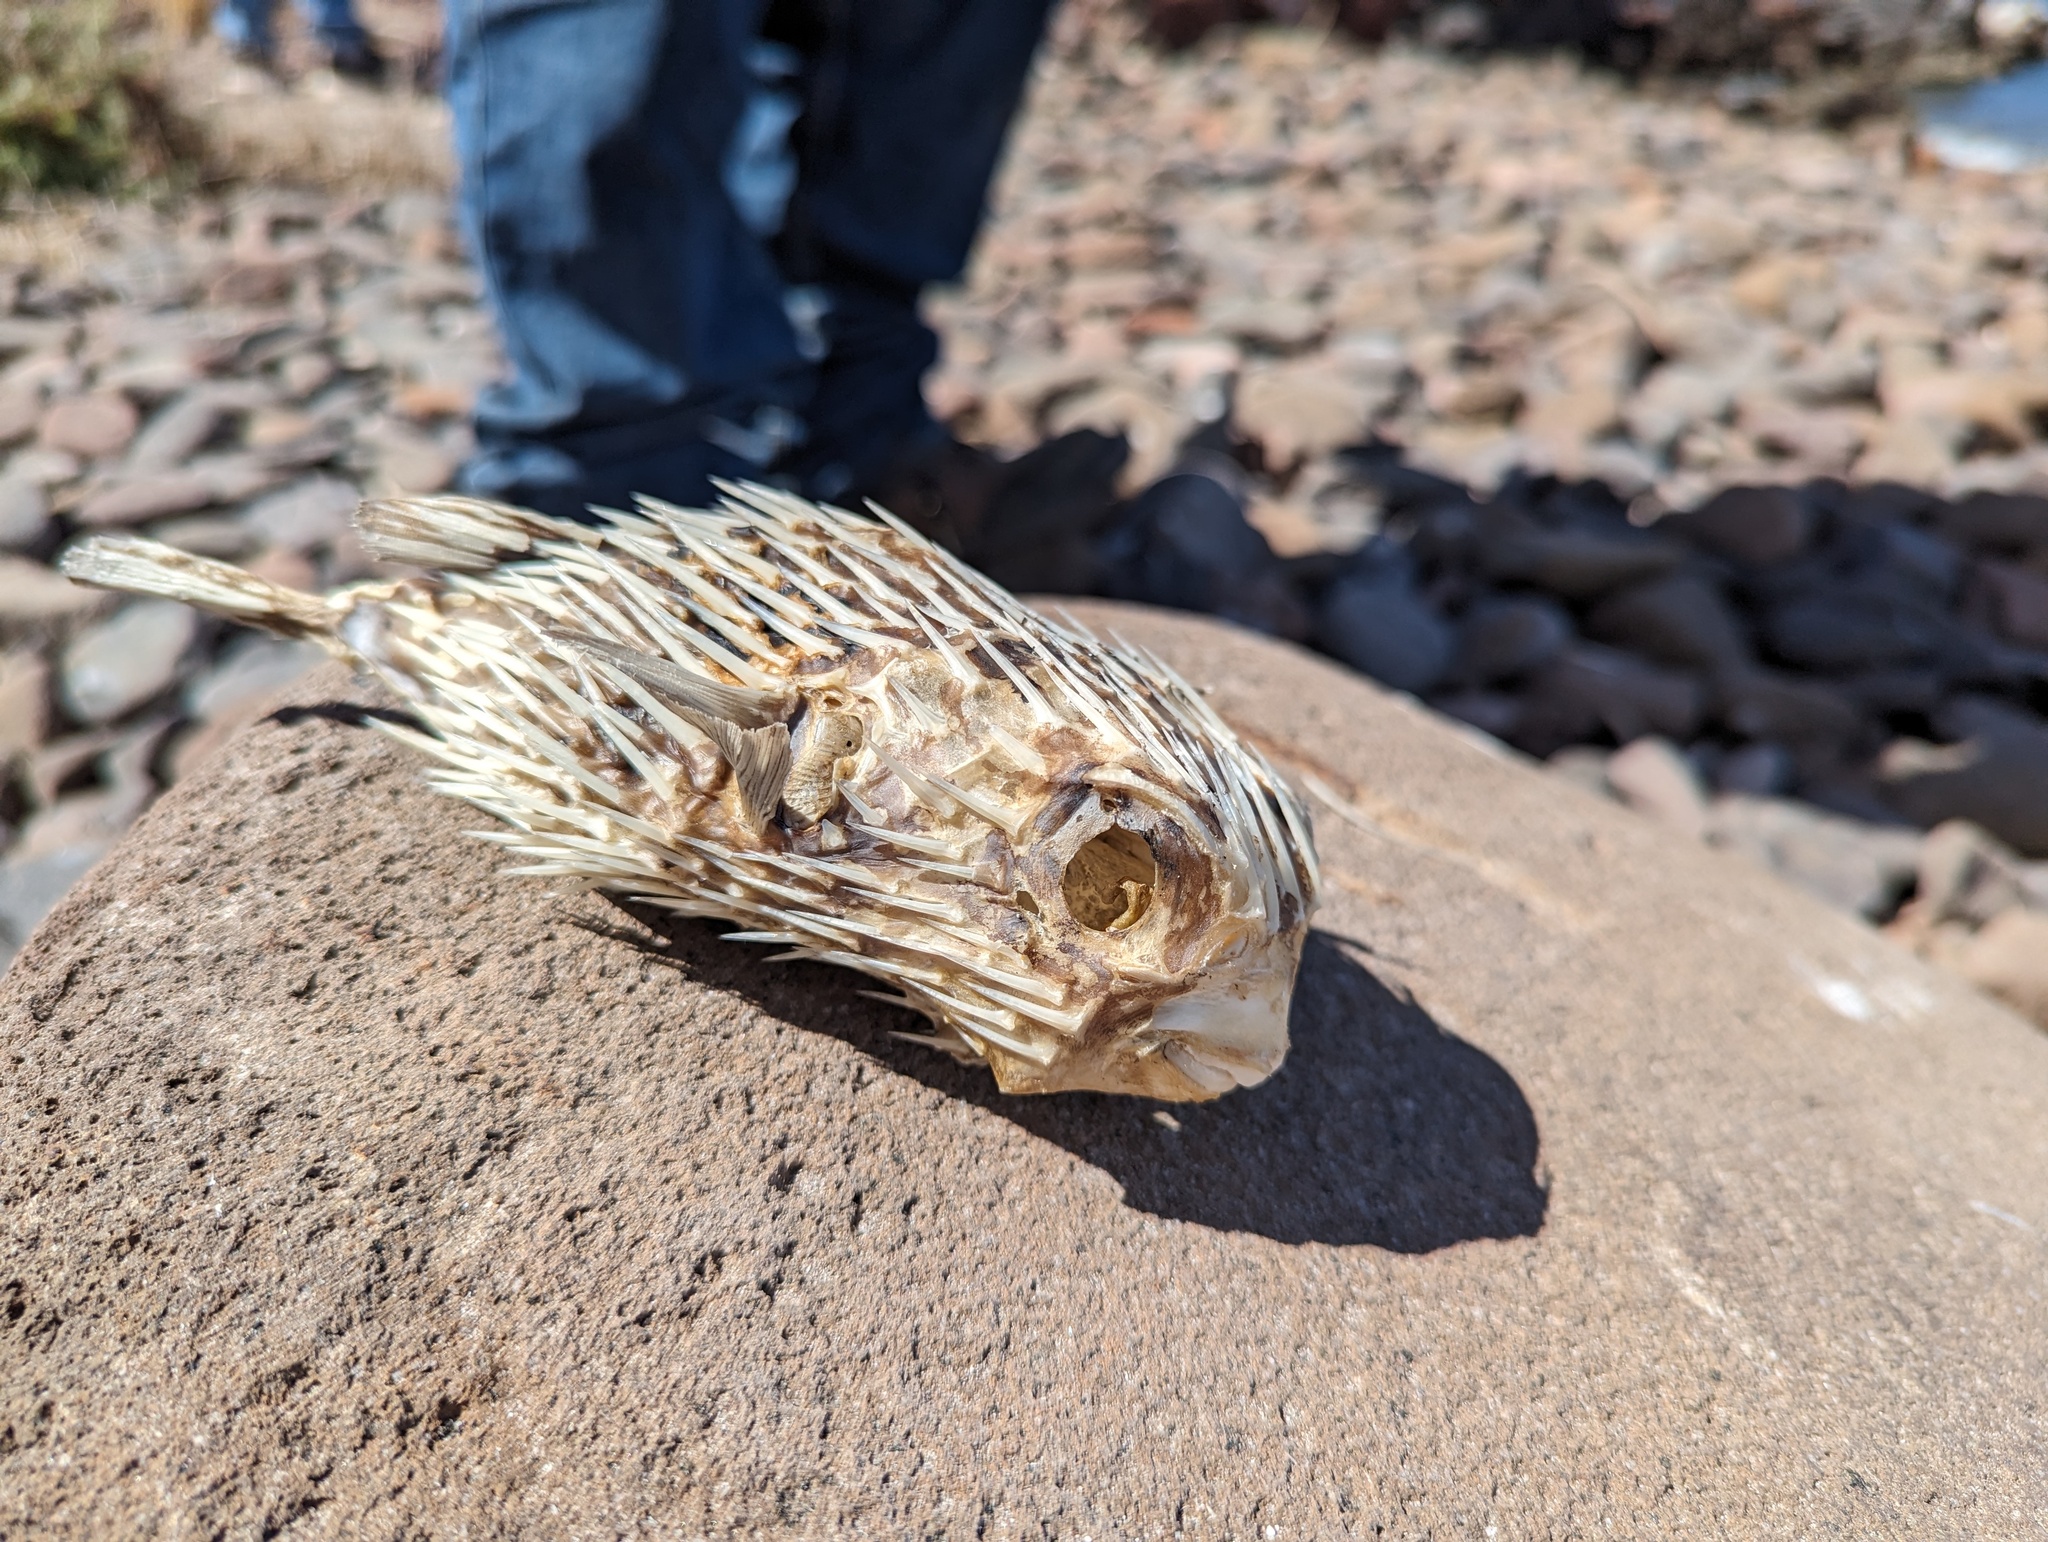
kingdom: Animalia
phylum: Chordata
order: Tetraodontiformes
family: Diodontidae
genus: Diodon
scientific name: Diodon holocanthus
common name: Balloonfish
